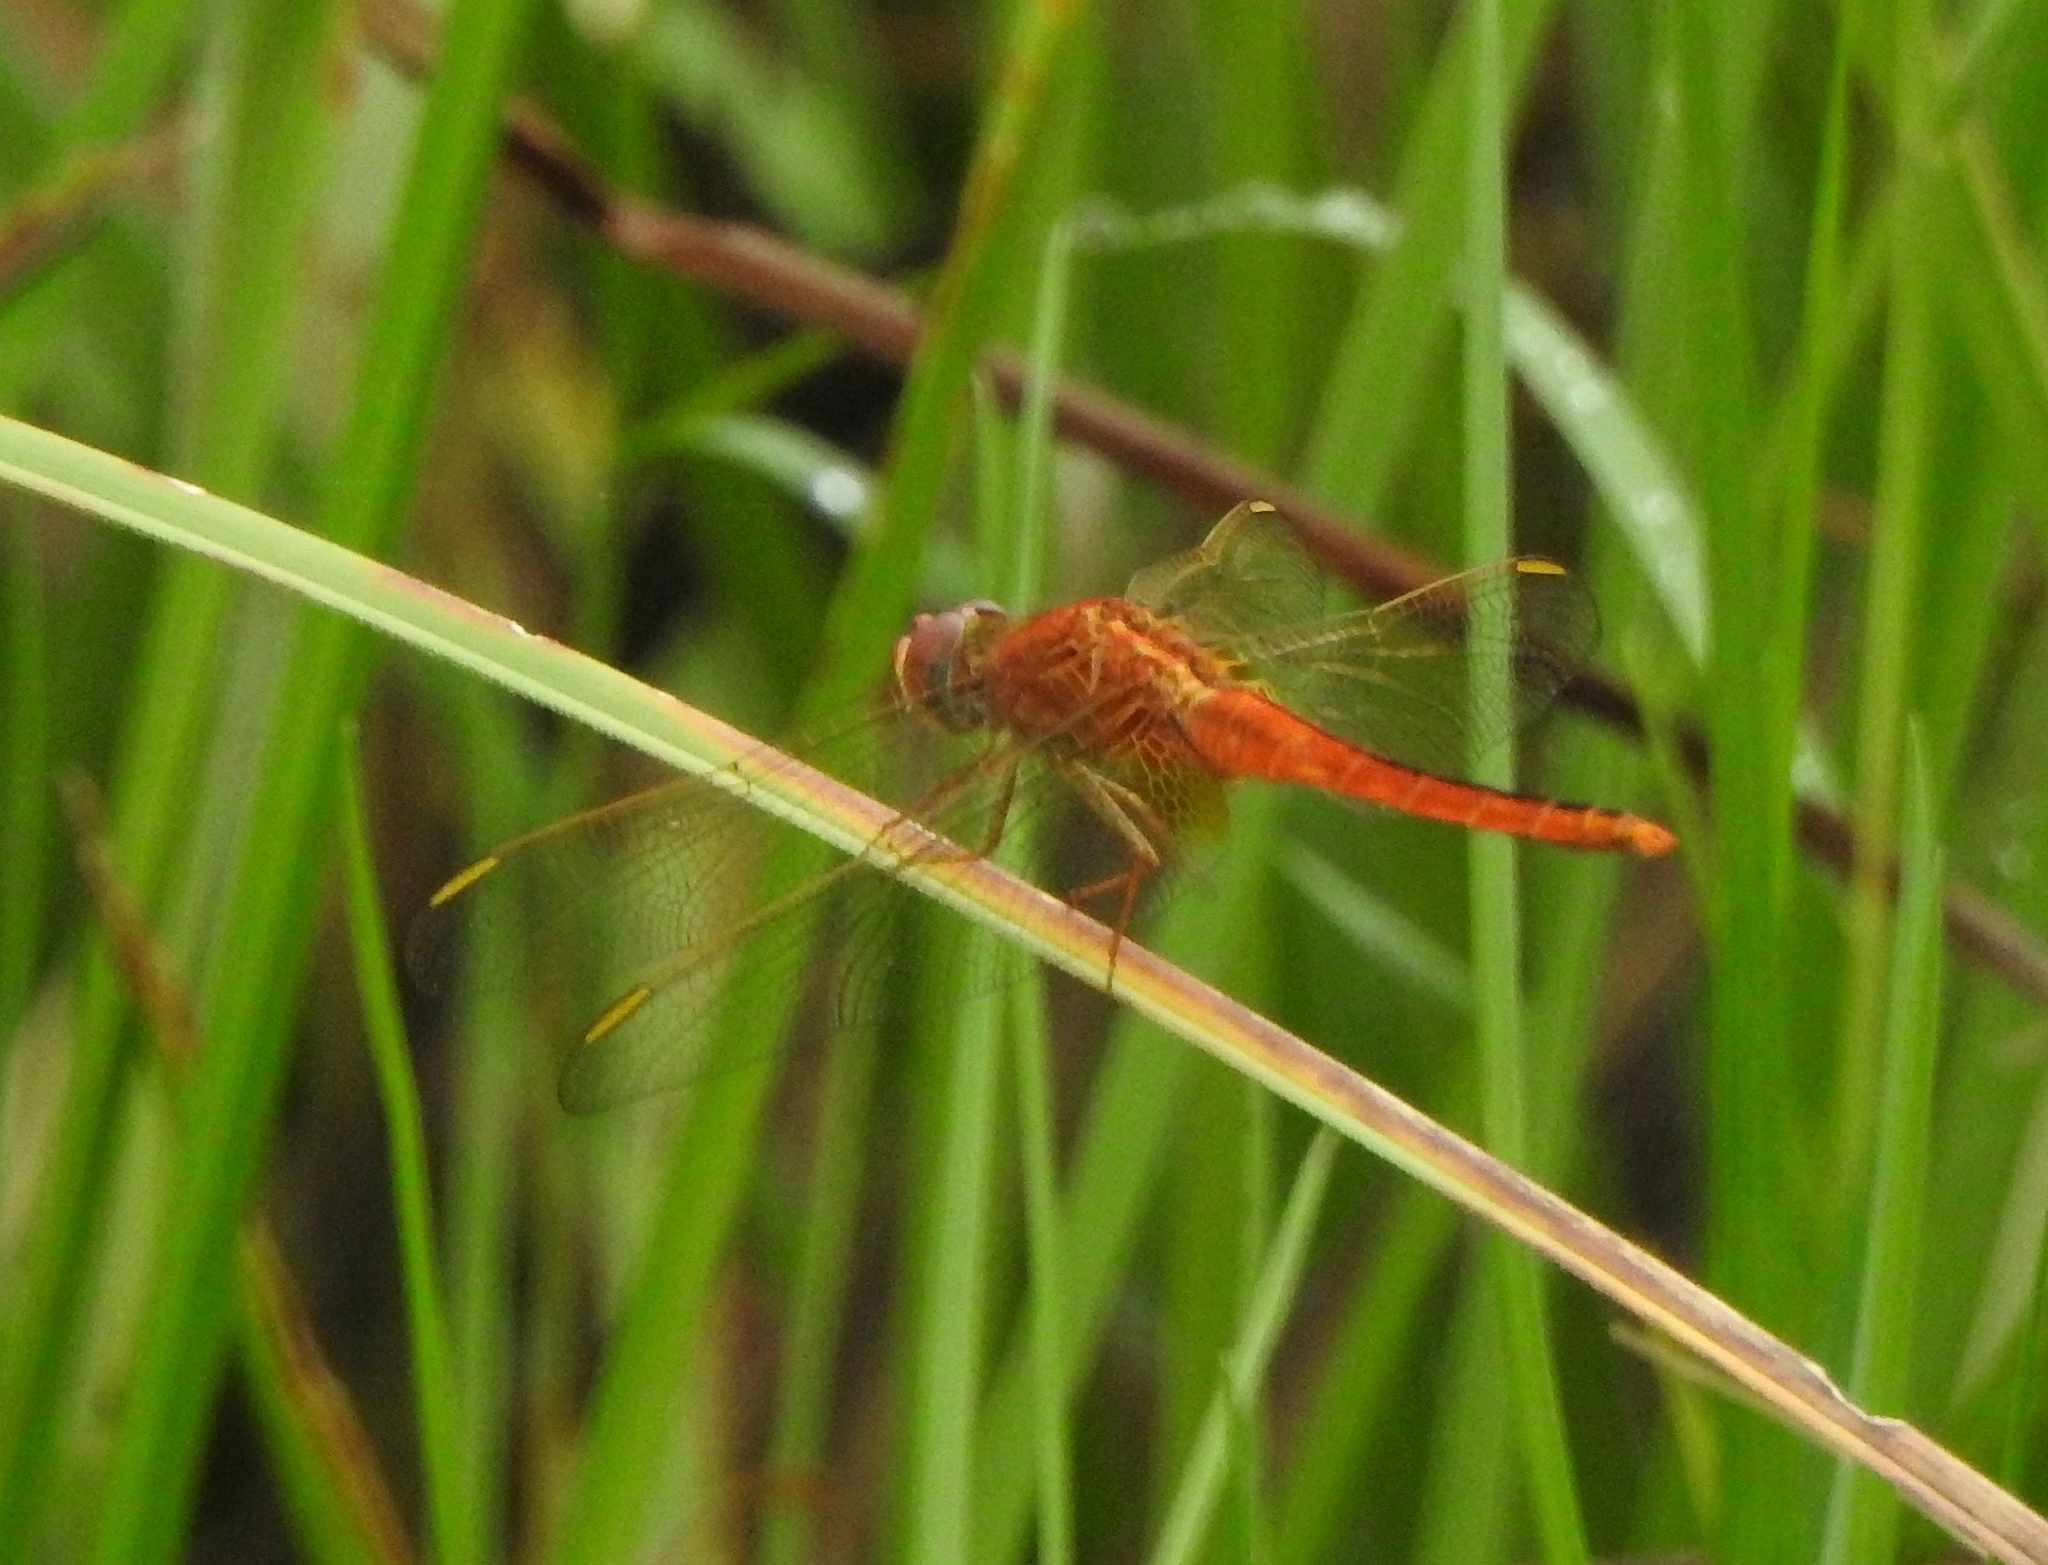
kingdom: Animalia
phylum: Arthropoda
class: Insecta
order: Odonata
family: Libellulidae
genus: Crocothemis
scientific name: Crocothemis servilia
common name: Scarlet skimmer
